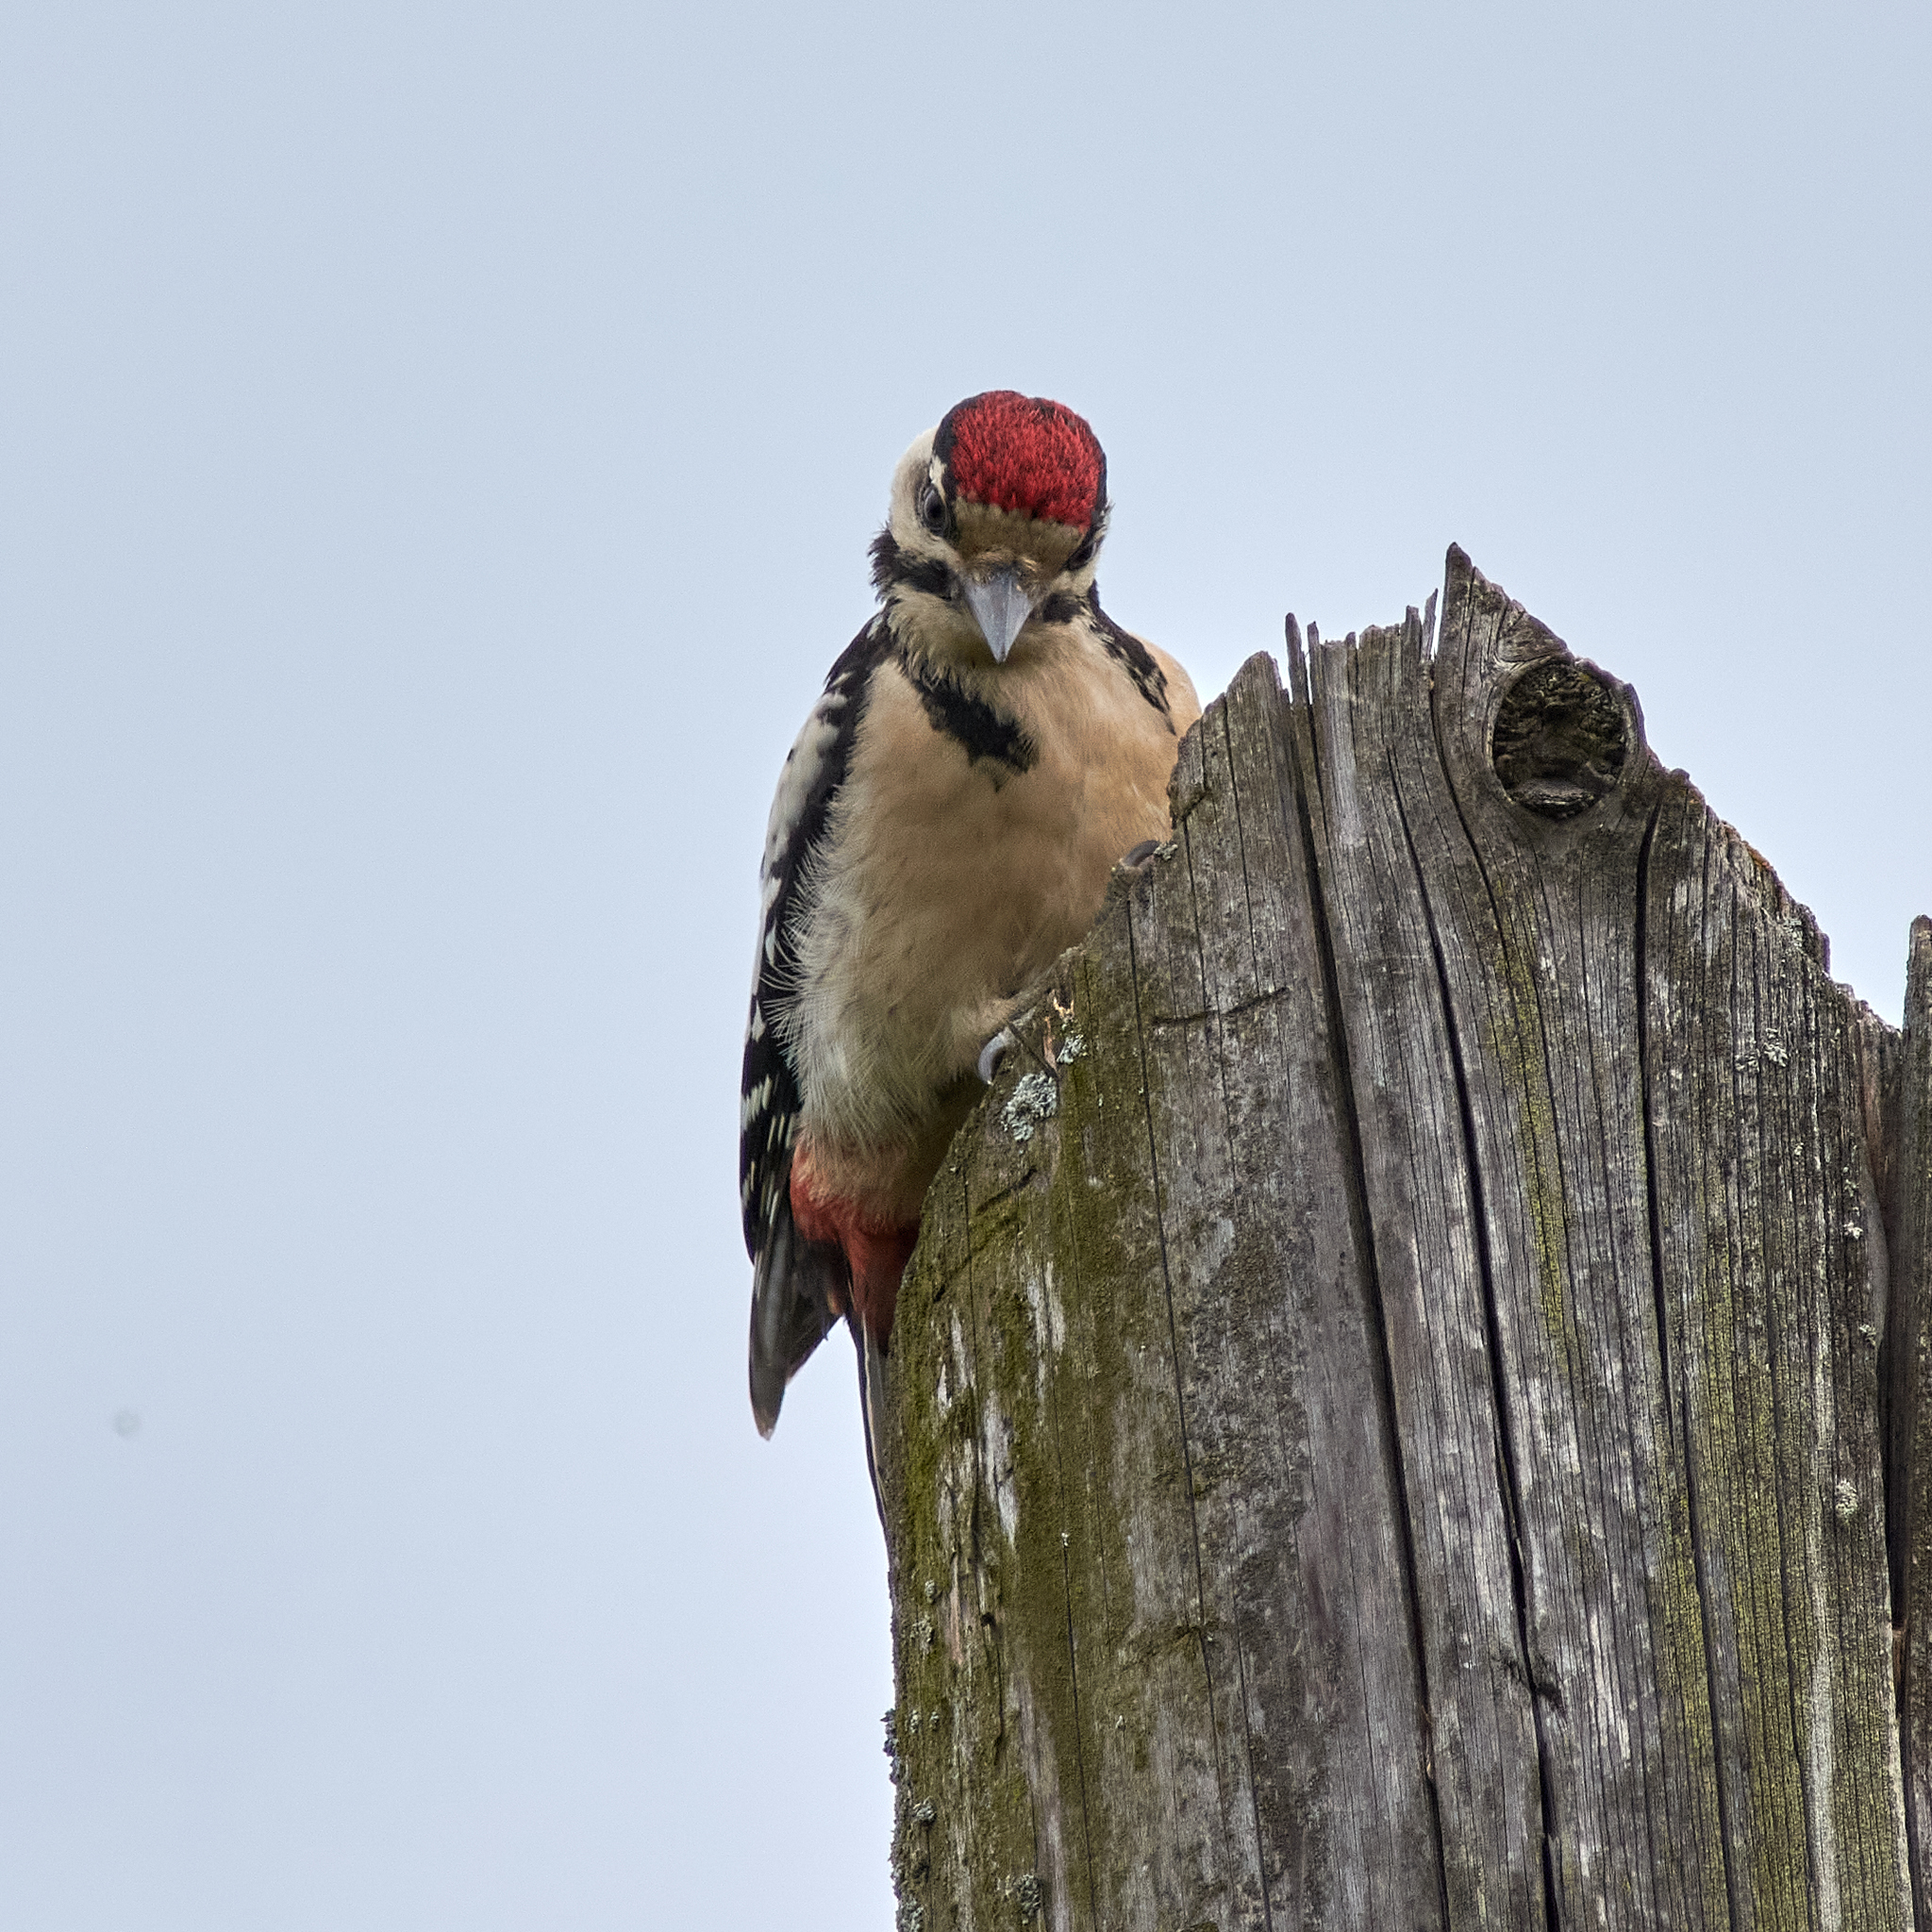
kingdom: Animalia
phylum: Chordata
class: Aves
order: Piciformes
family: Picidae
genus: Dendrocopos
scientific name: Dendrocopos major
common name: Great spotted woodpecker
